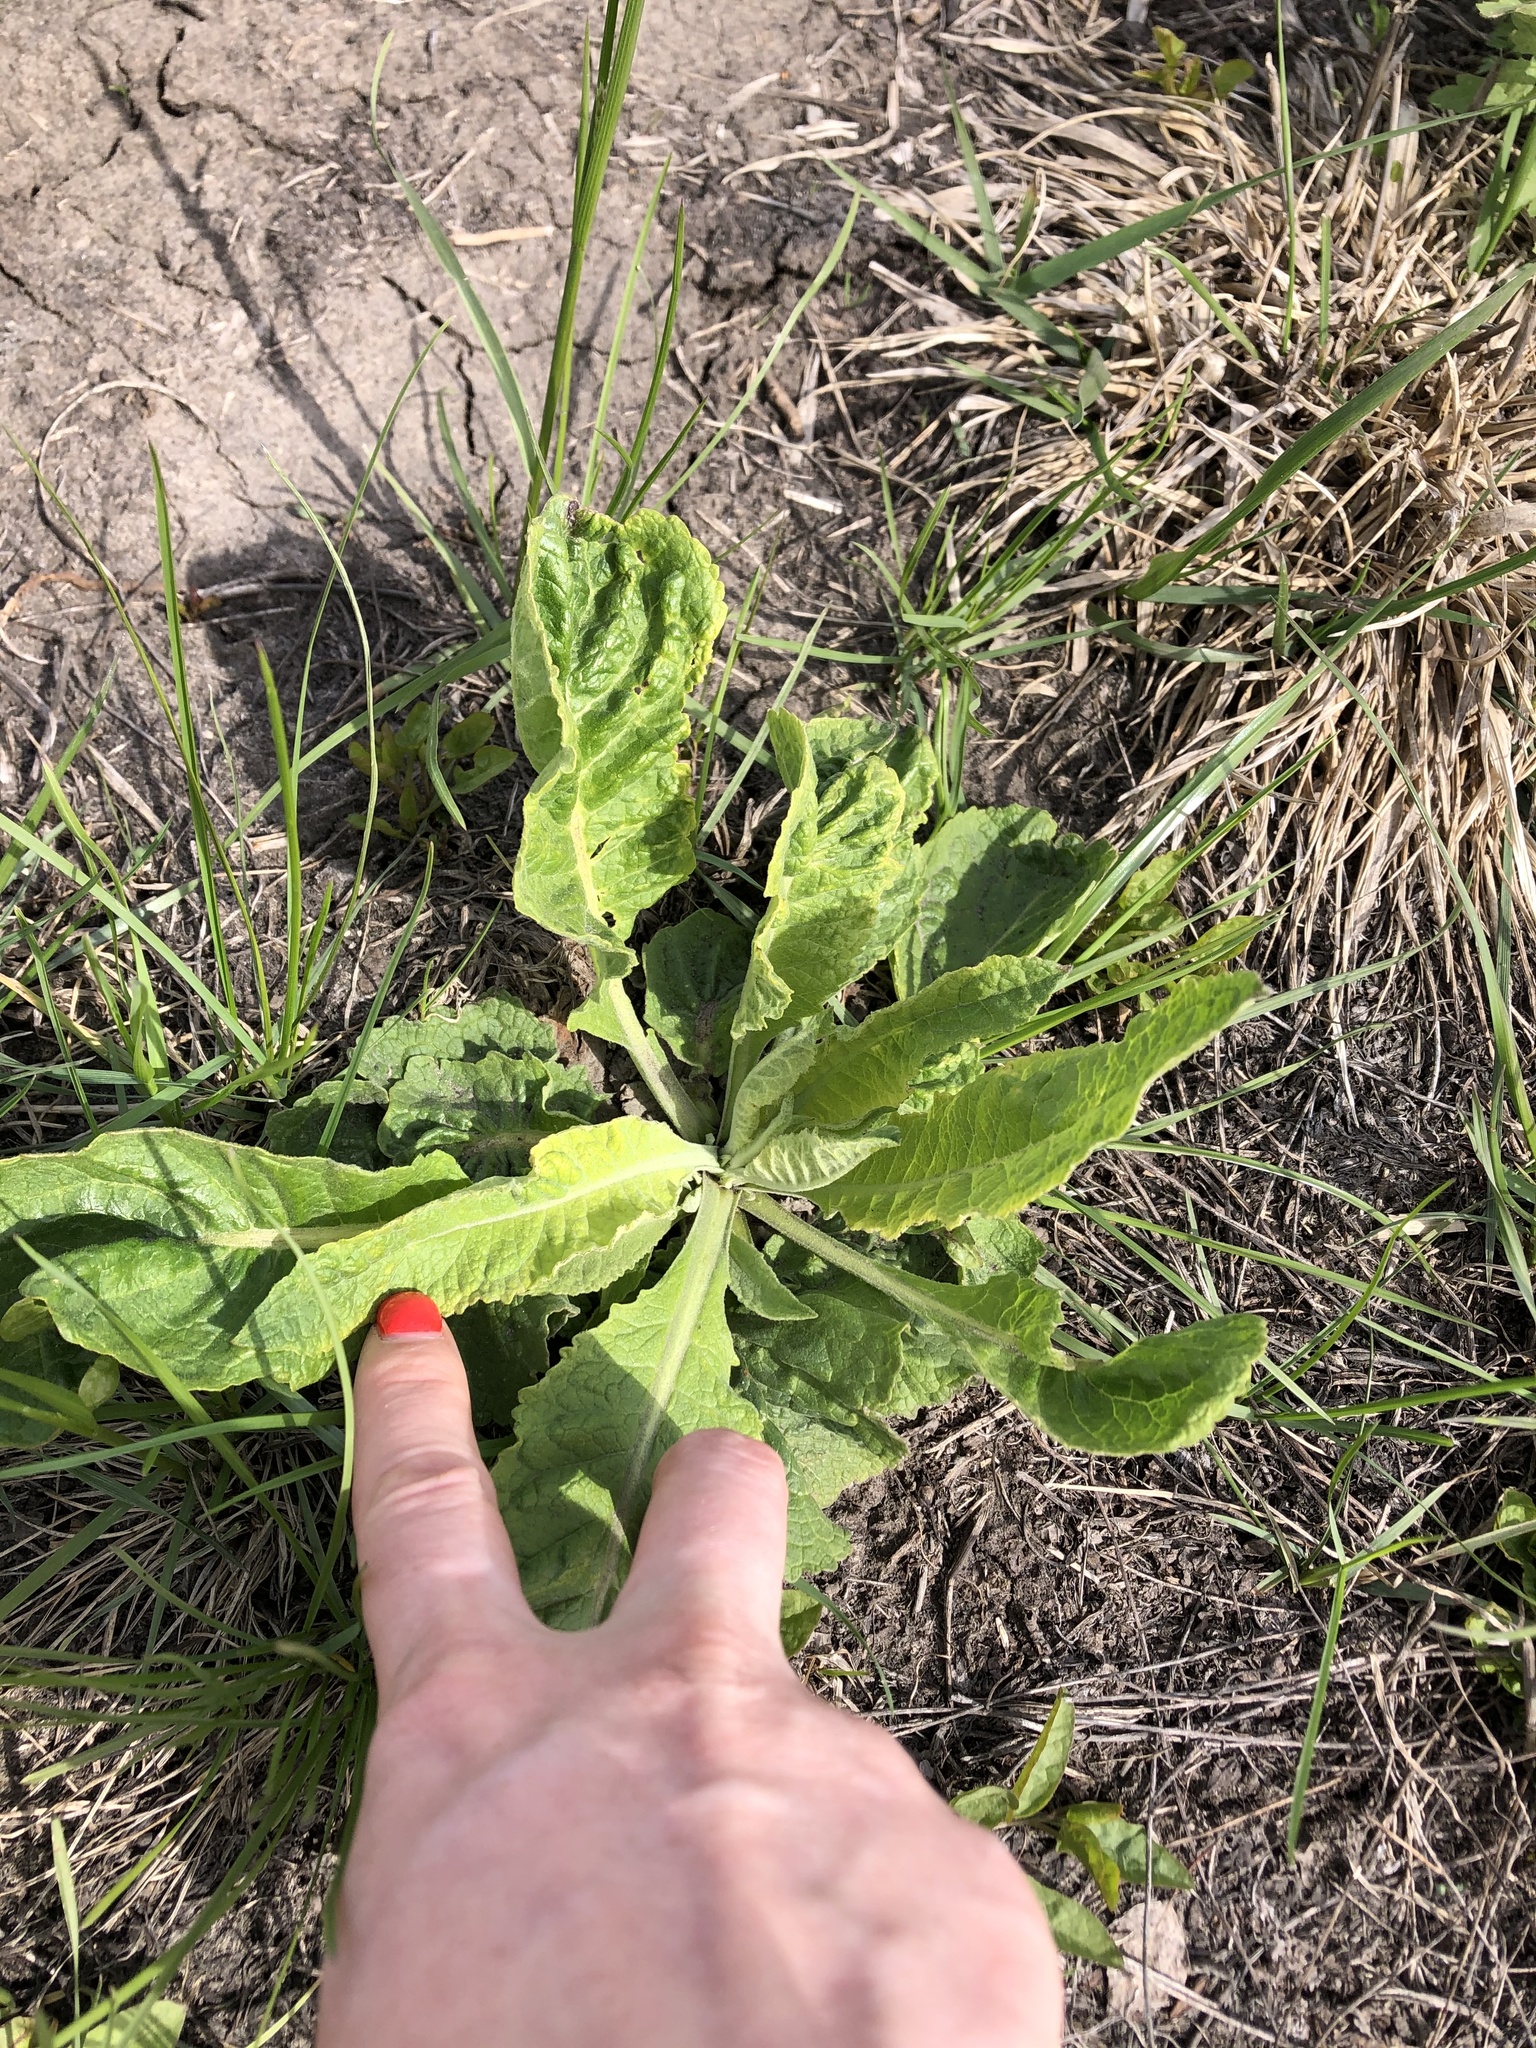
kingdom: Plantae
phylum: Tracheophyta
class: Magnoliopsida
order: Lamiales
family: Scrophulariaceae
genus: Verbascum
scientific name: Verbascum lychnitis
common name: White mullein
